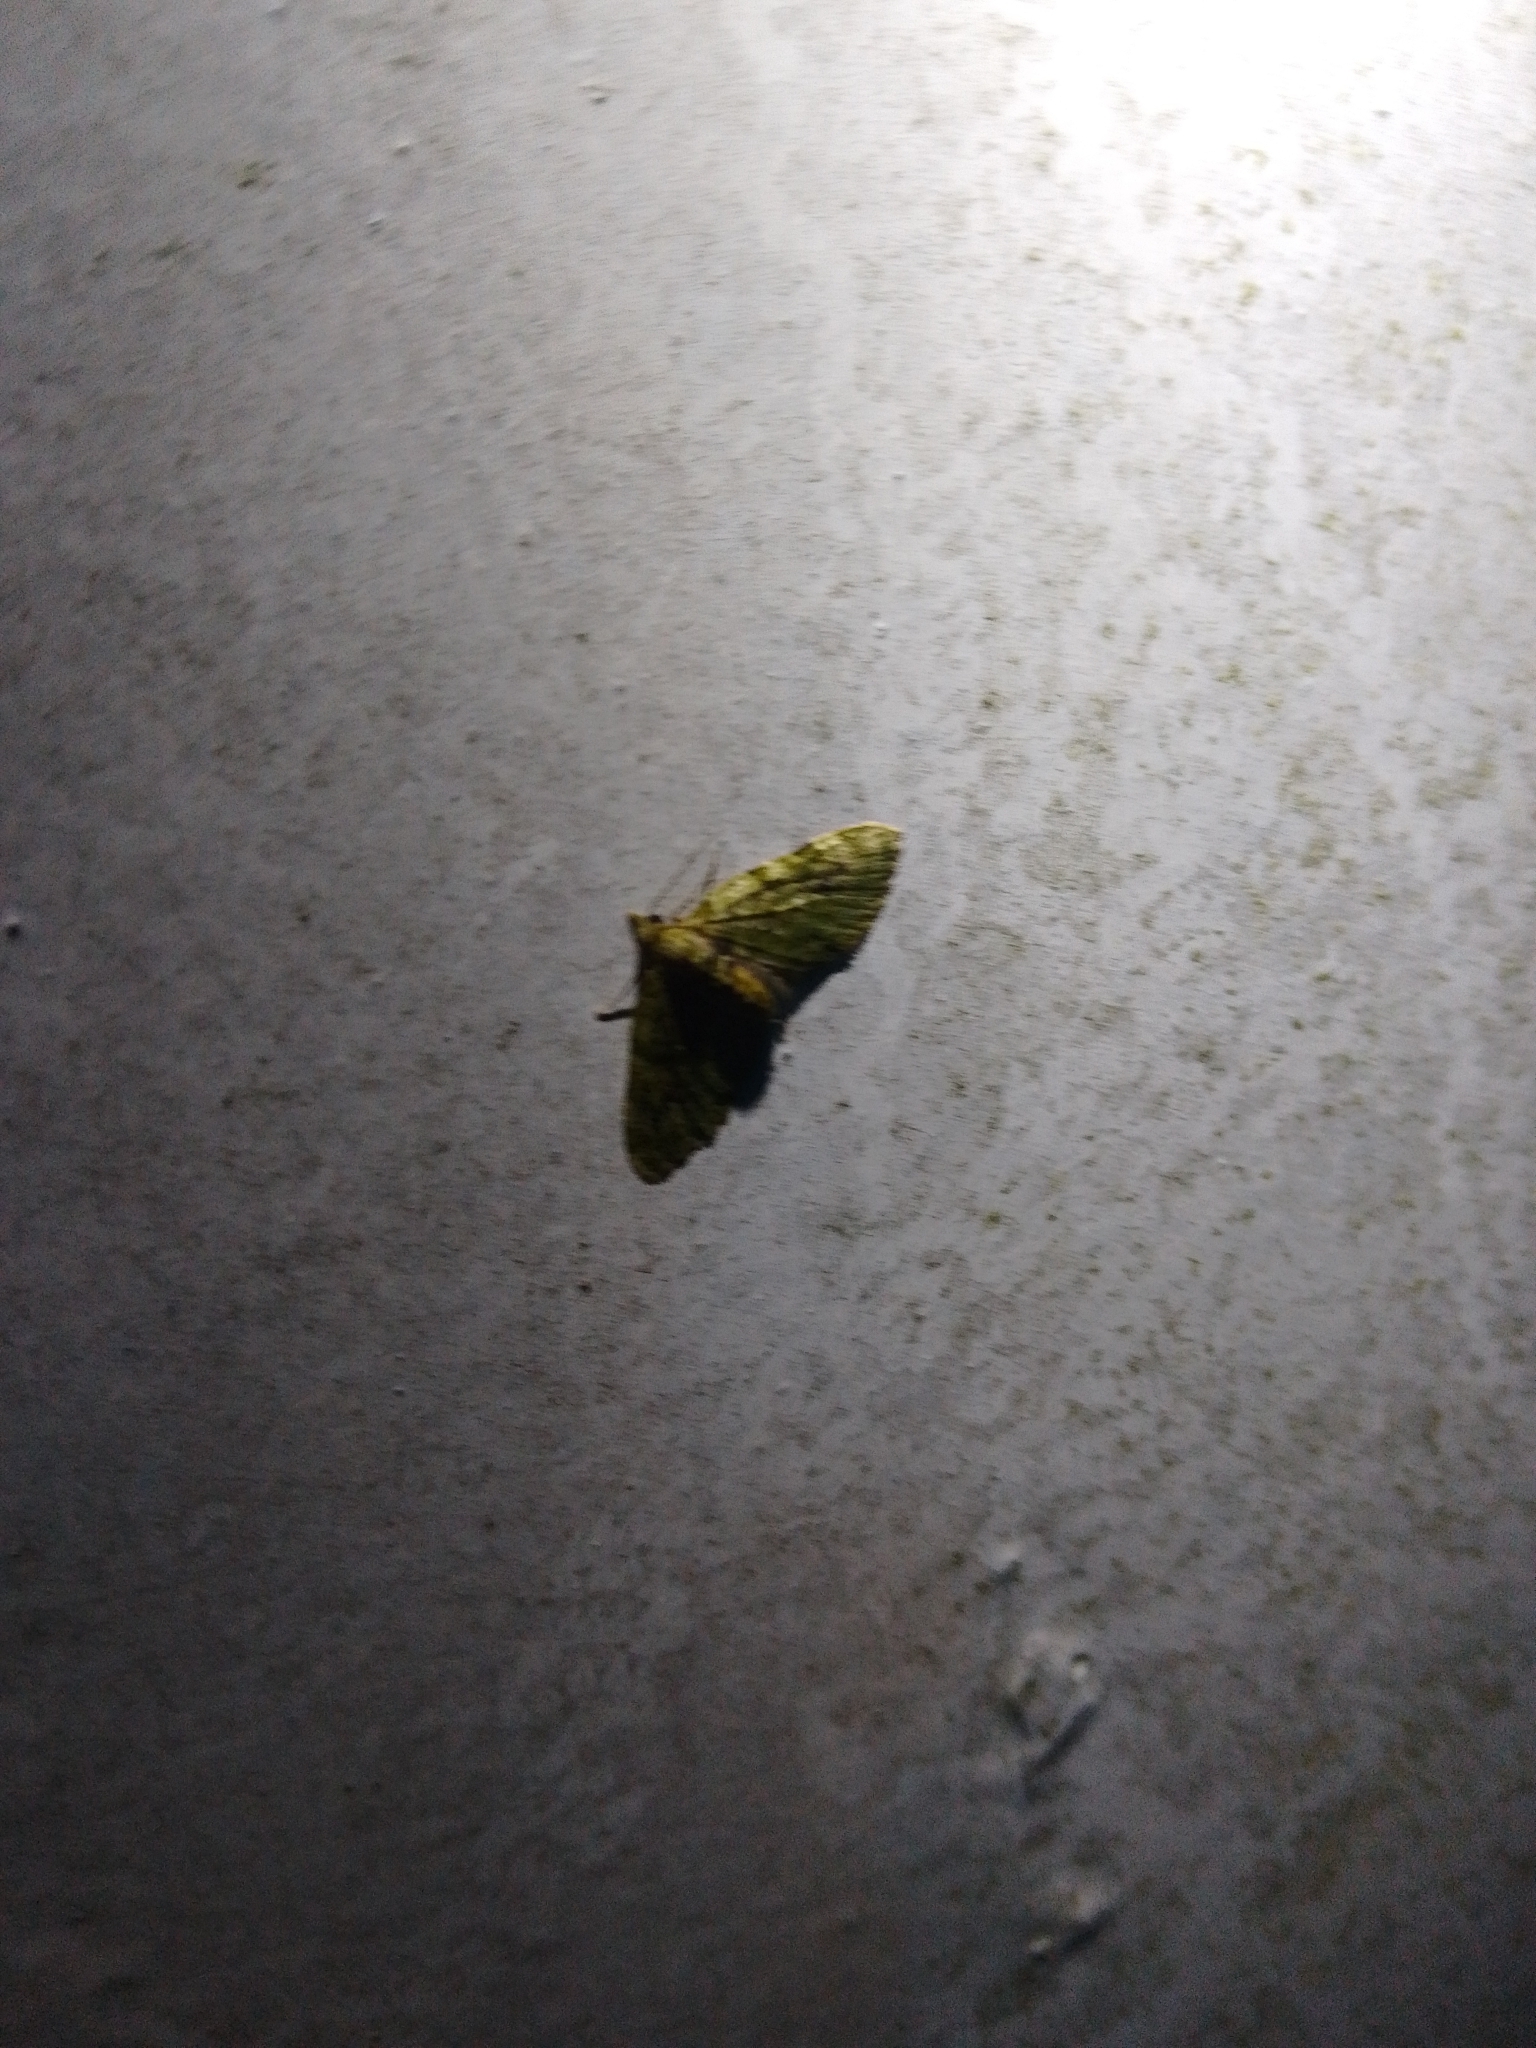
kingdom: Animalia
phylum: Arthropoda
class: Insecta
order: Lepidoptera
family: Geometridae
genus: Chloroclystis
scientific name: Chloroclystis v-ata
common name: V-pug
